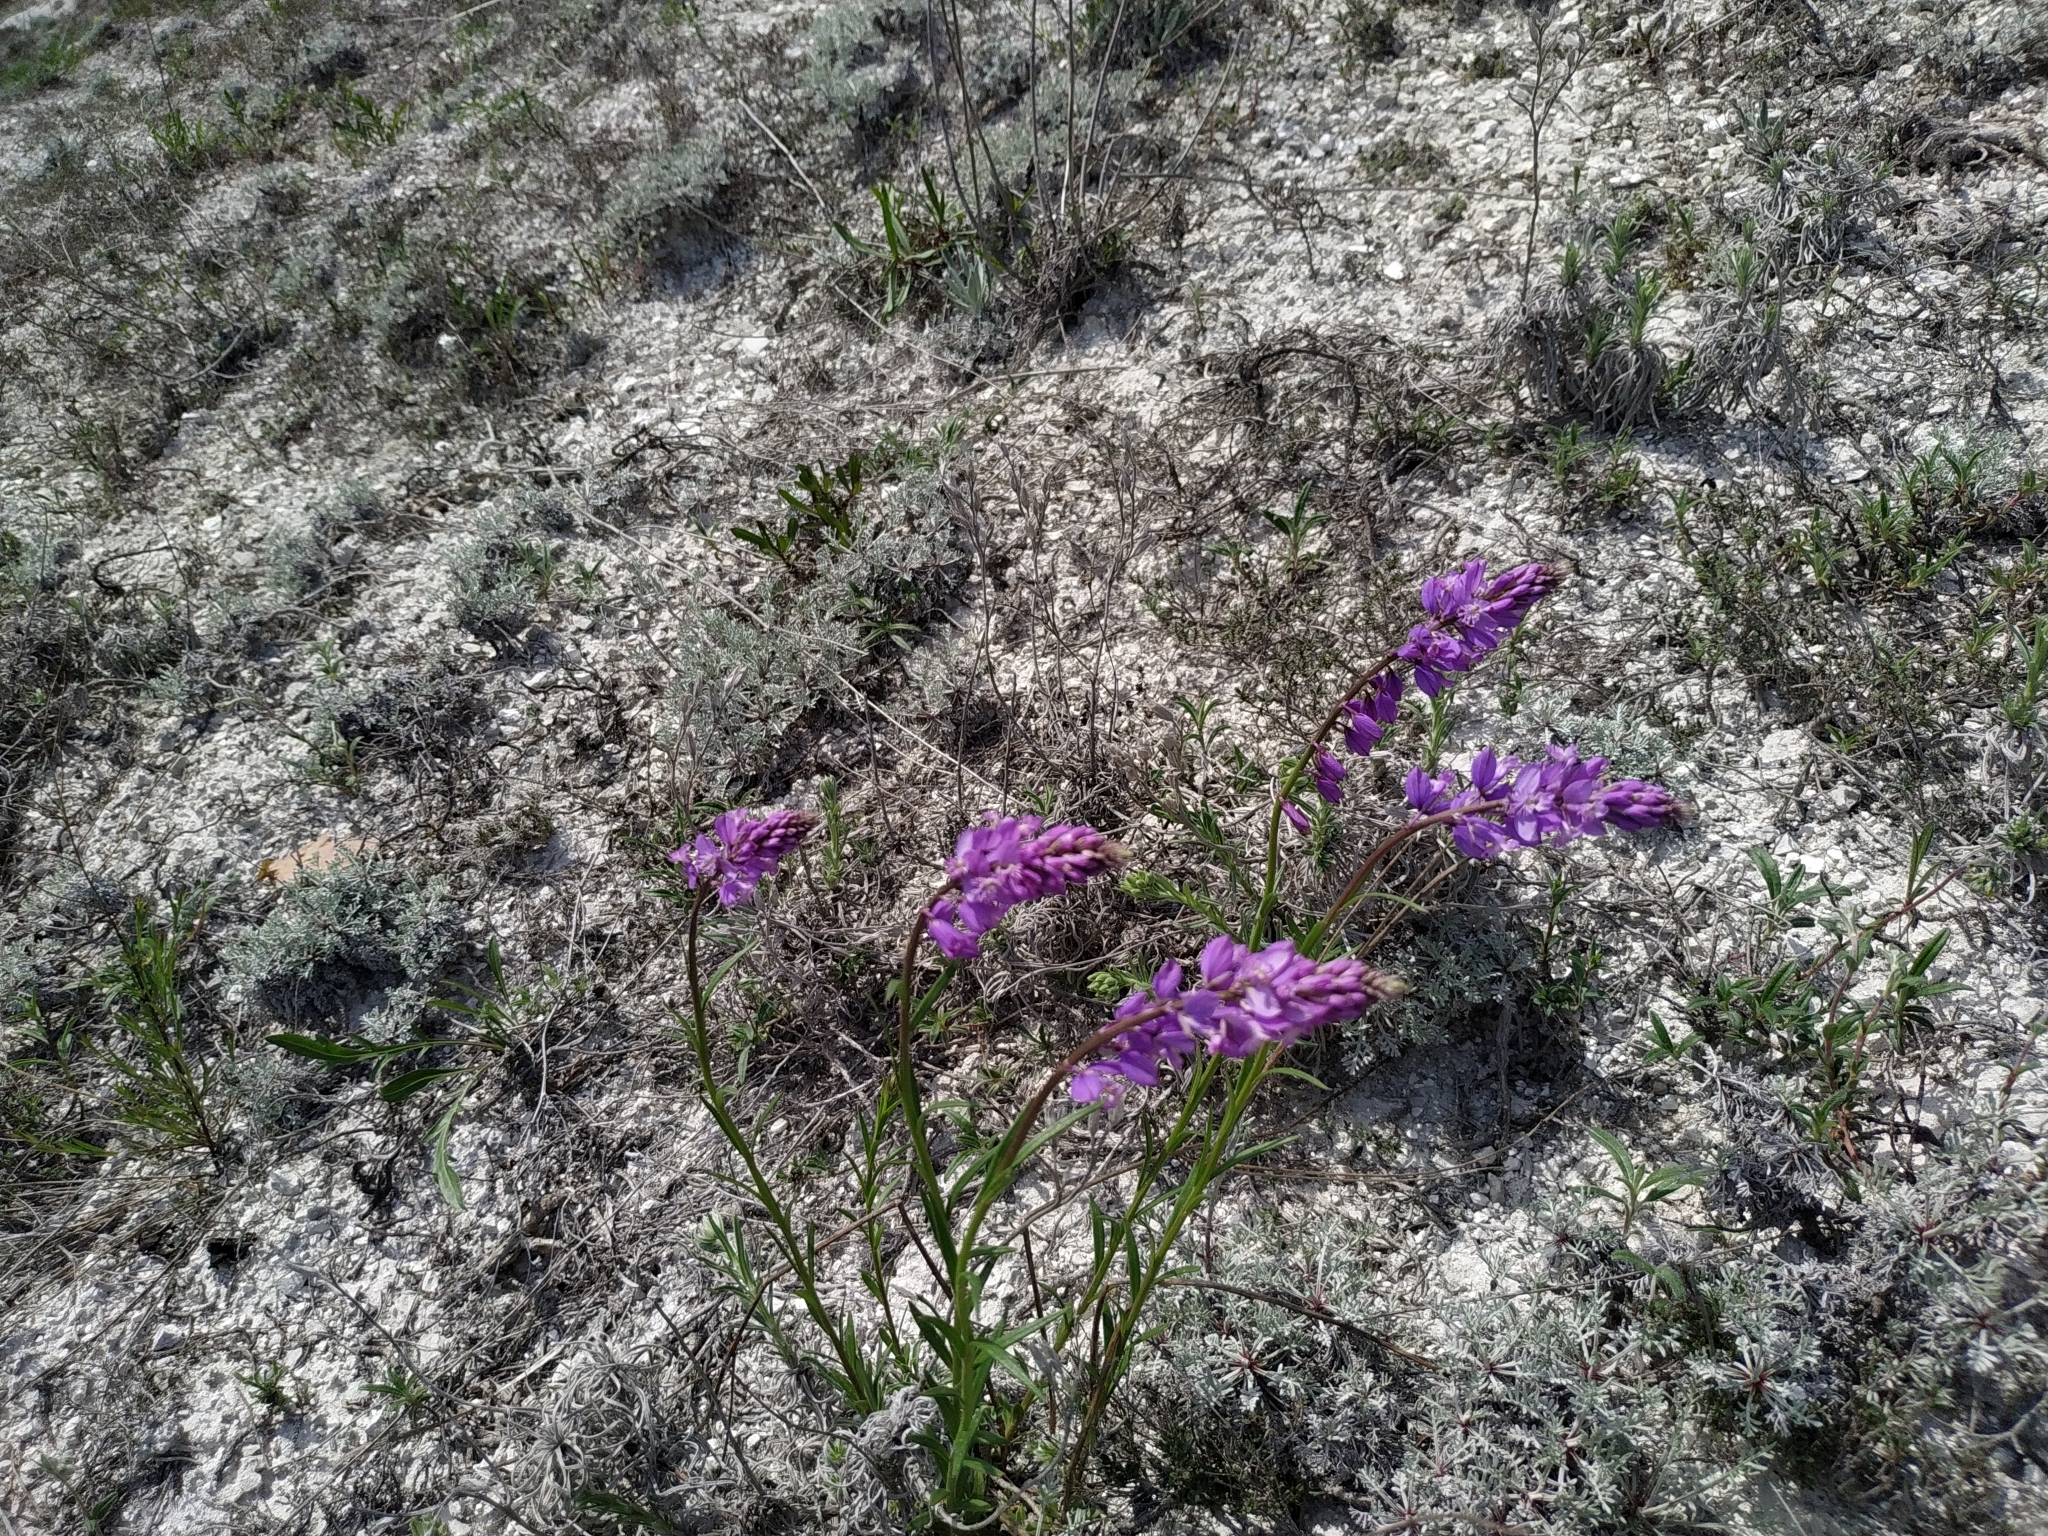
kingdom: Plantae
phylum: Tracheophyta
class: Magnoliopsida
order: Fabales
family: Polygalaceae
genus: Polygala
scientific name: Polygala nicaeensis
